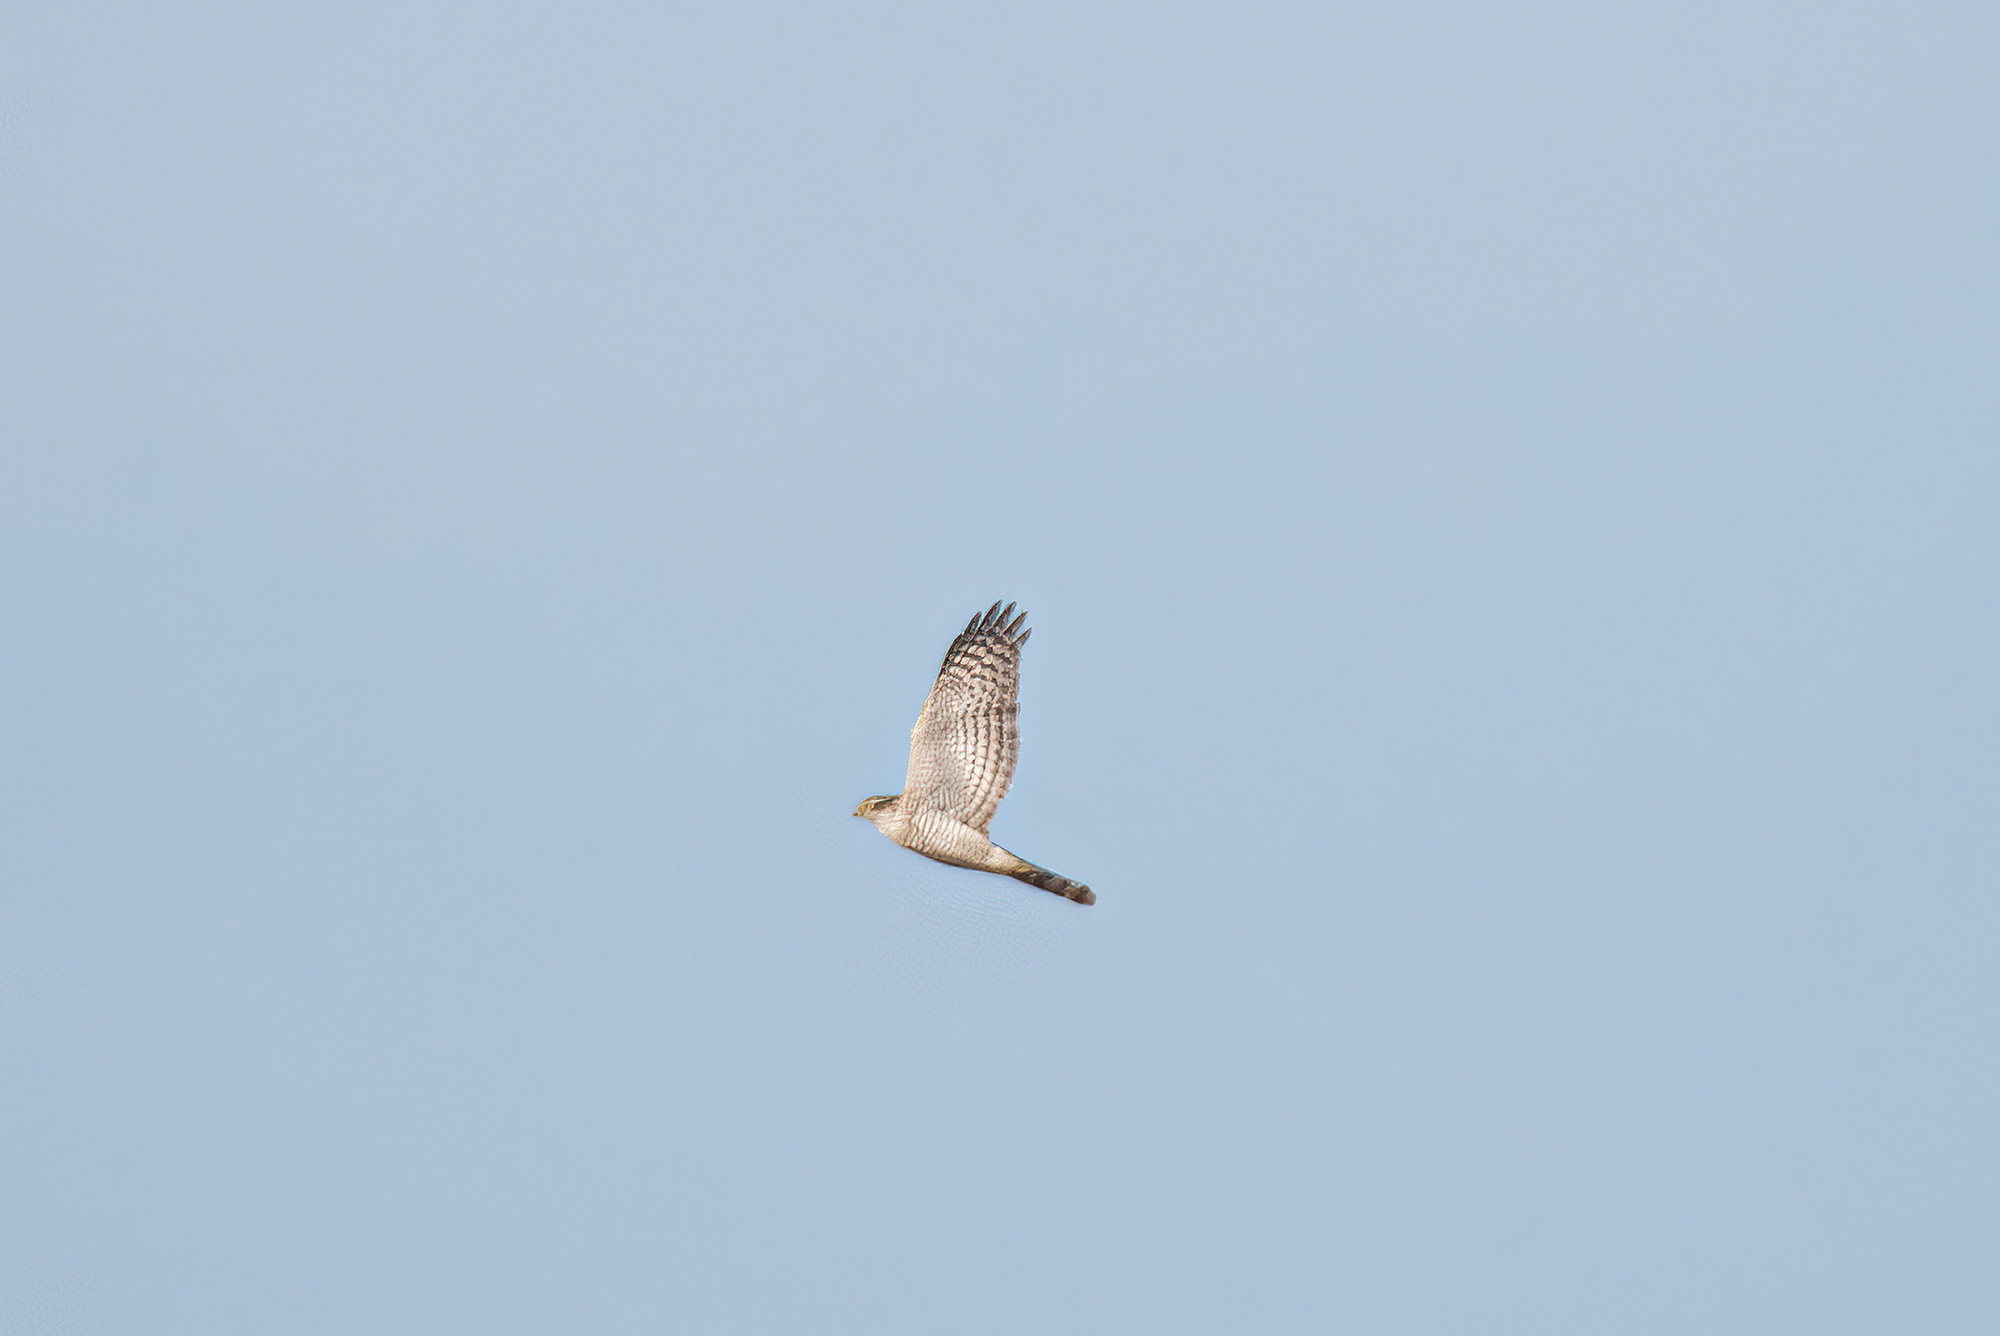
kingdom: Animalia
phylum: Chordata
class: Aves
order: Accipitriformes
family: Accipitridae
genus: Accipiter
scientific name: Accipiter nisus
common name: Eurasian sparrowhawk
